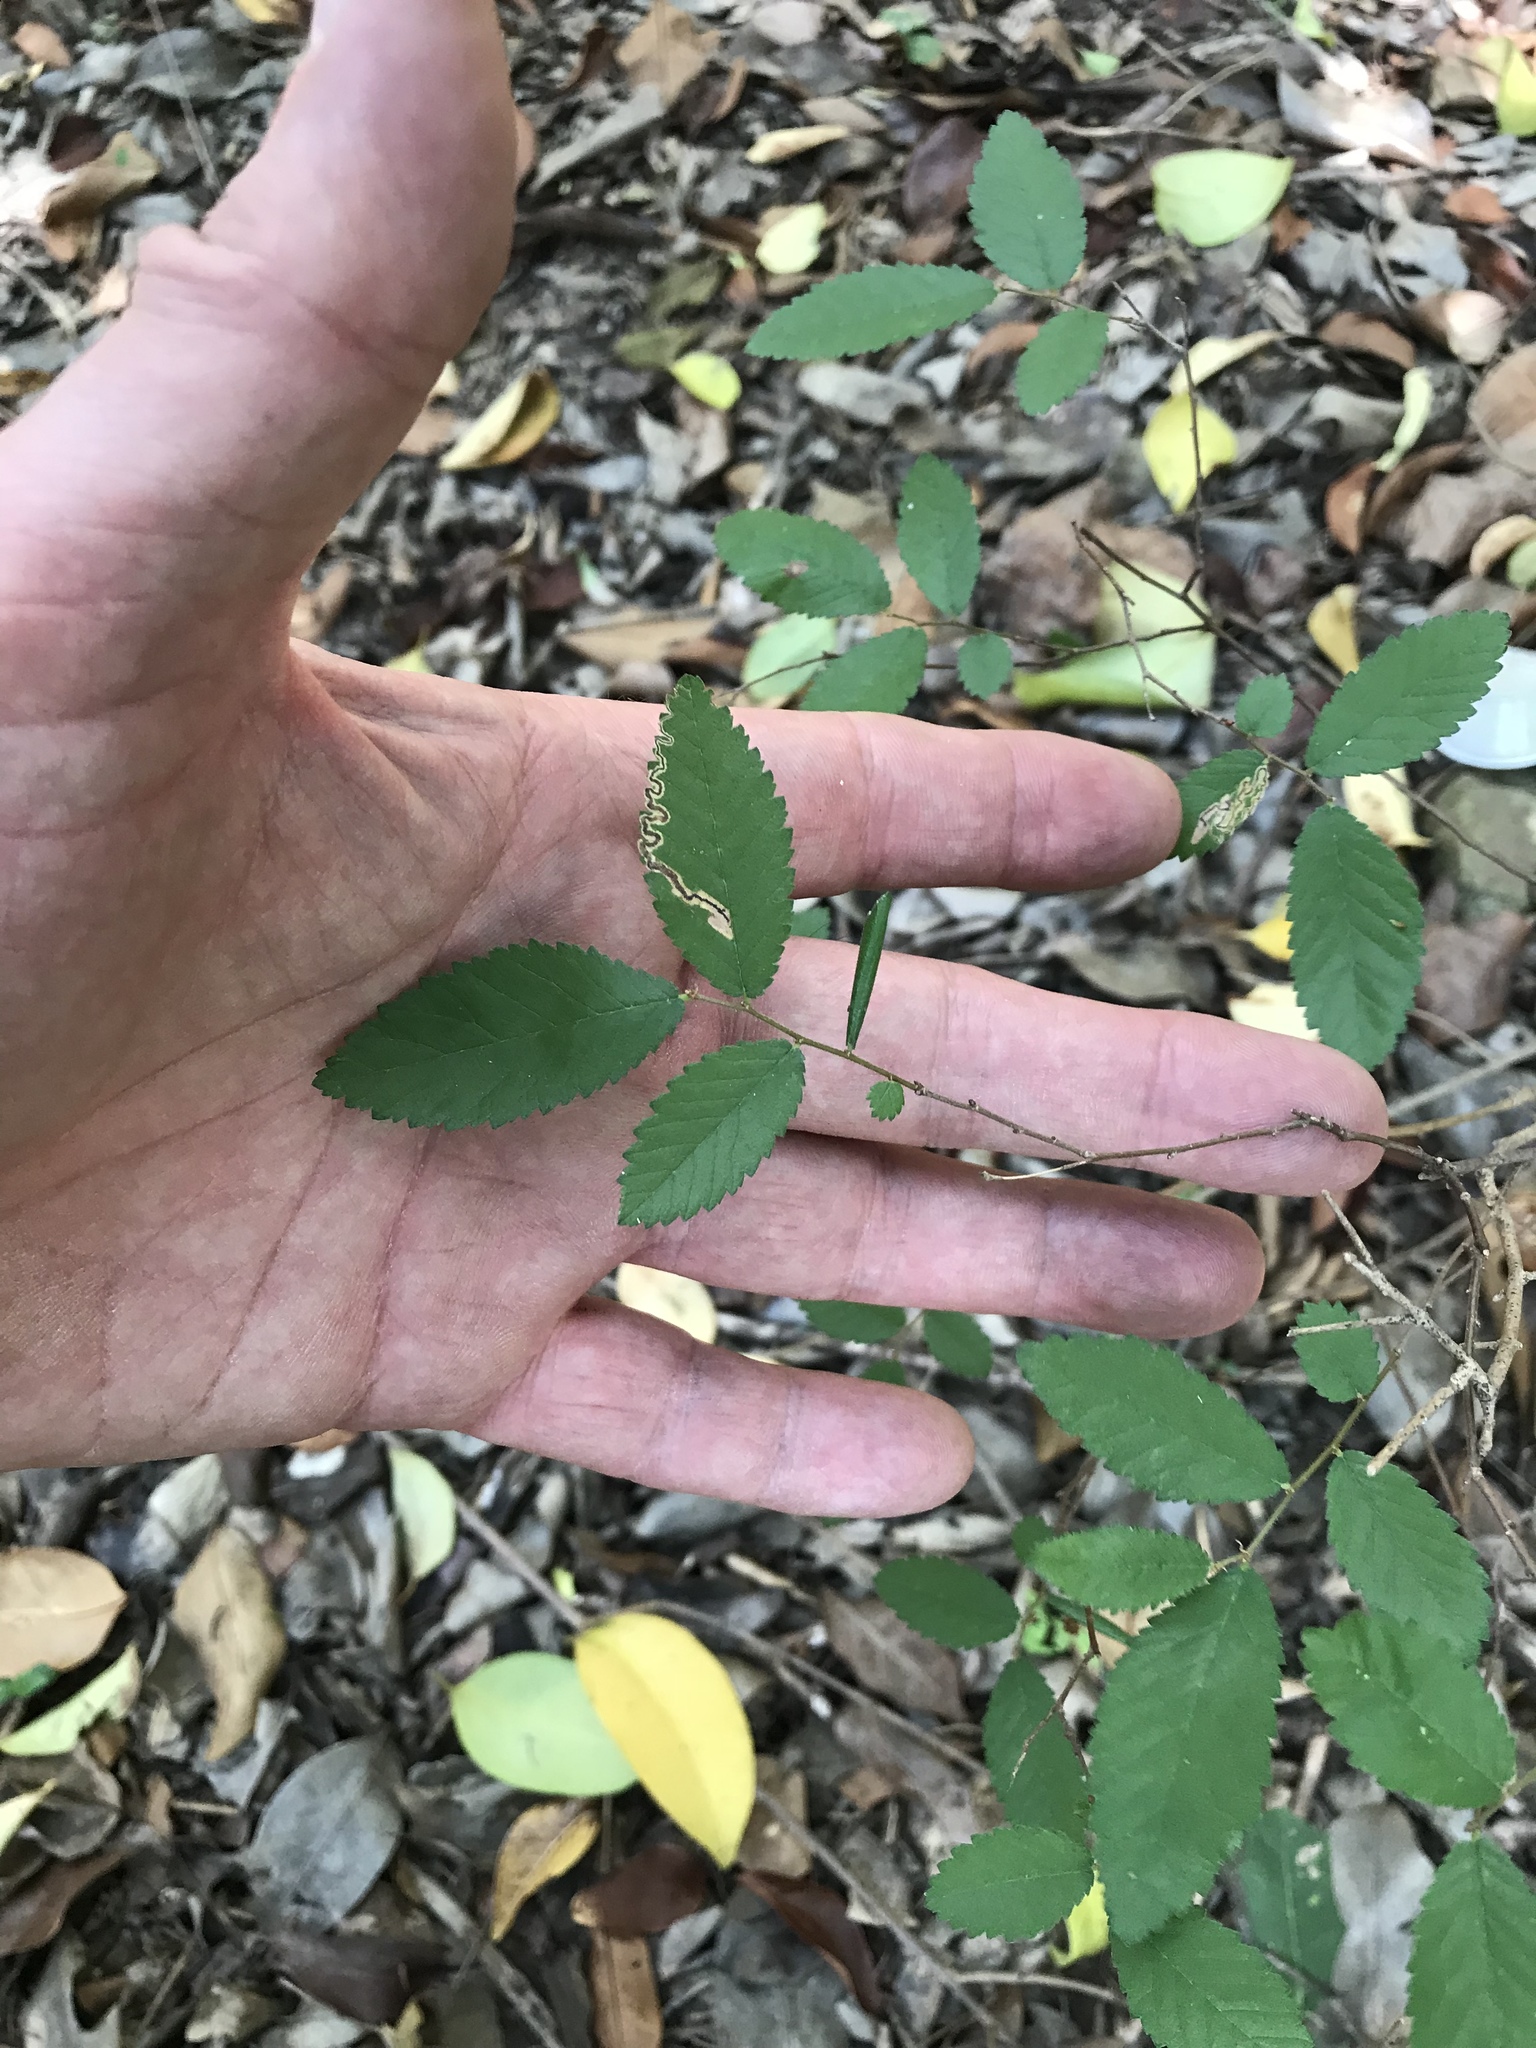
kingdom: Plantae
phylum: Tracheophyta
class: Magnoliopsida
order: Rosales
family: Ulmaceae
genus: Ulmus
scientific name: Ulmus crassifolia
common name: Basket elm
